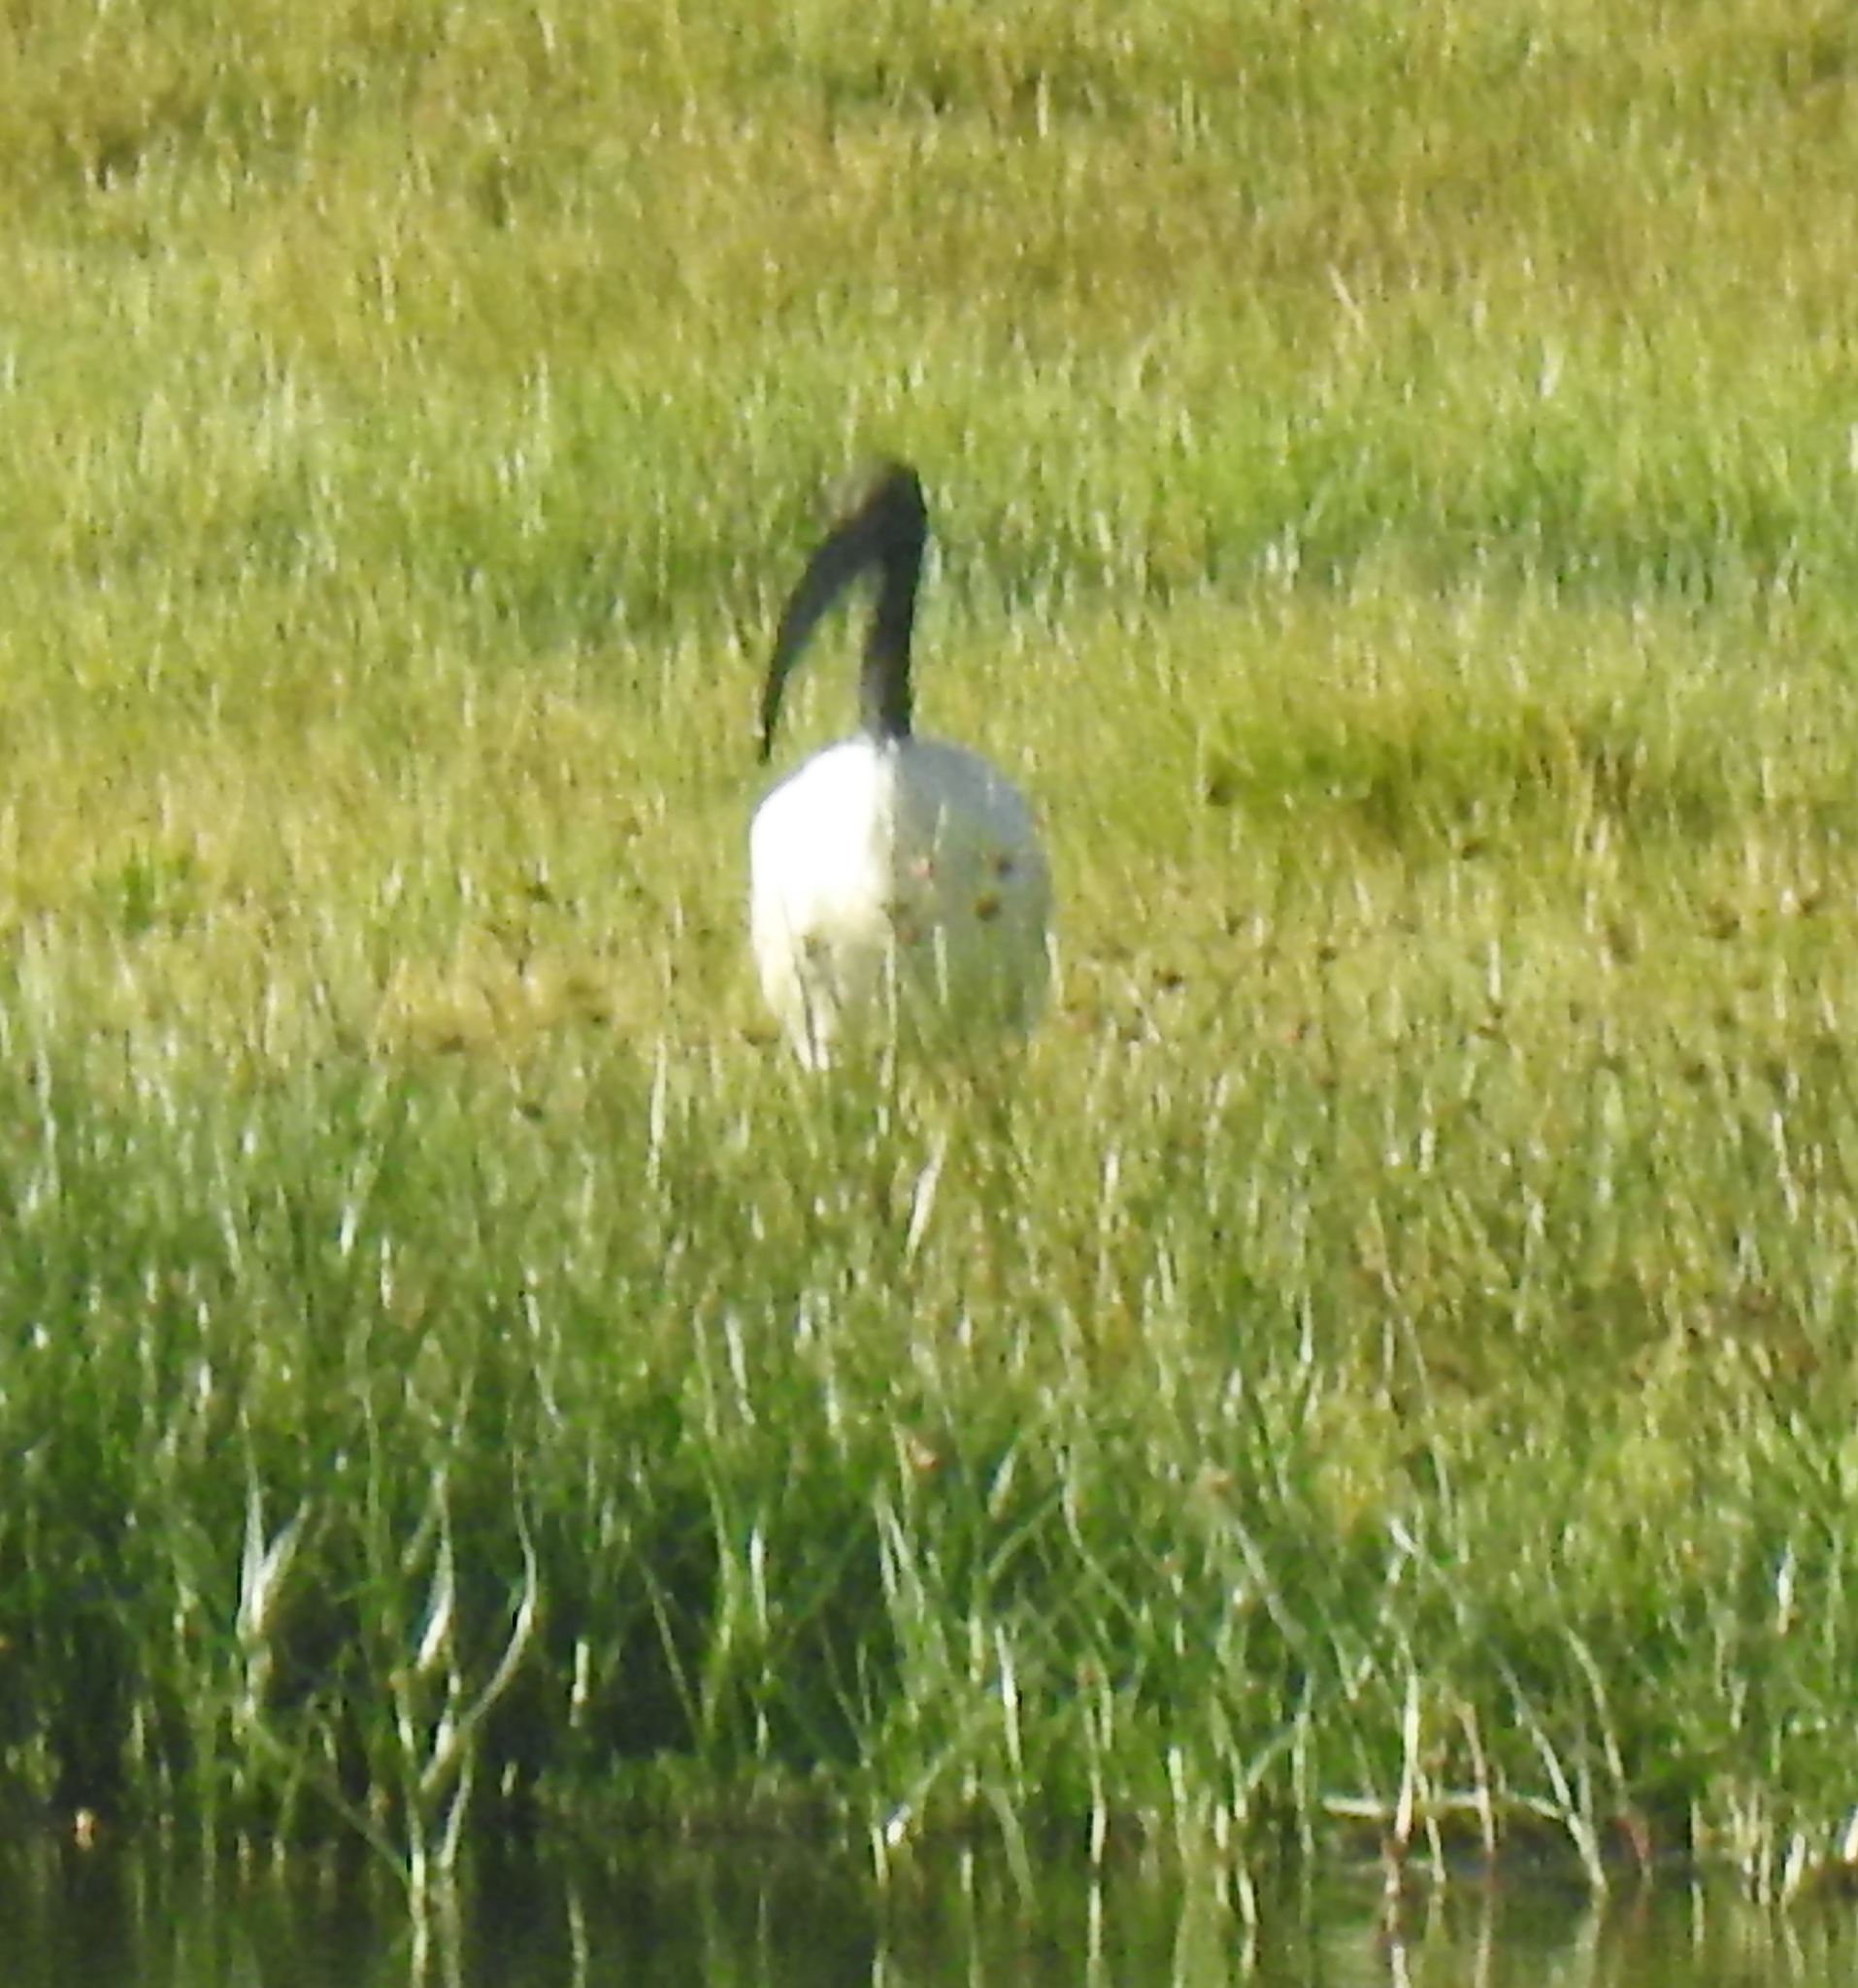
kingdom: Animalia
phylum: Chordata
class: Aves
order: Pelecaniformes
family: Threskiornithidae
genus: Threskiornis
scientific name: Threskiornis aethiopicus
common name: Sacred ibis
